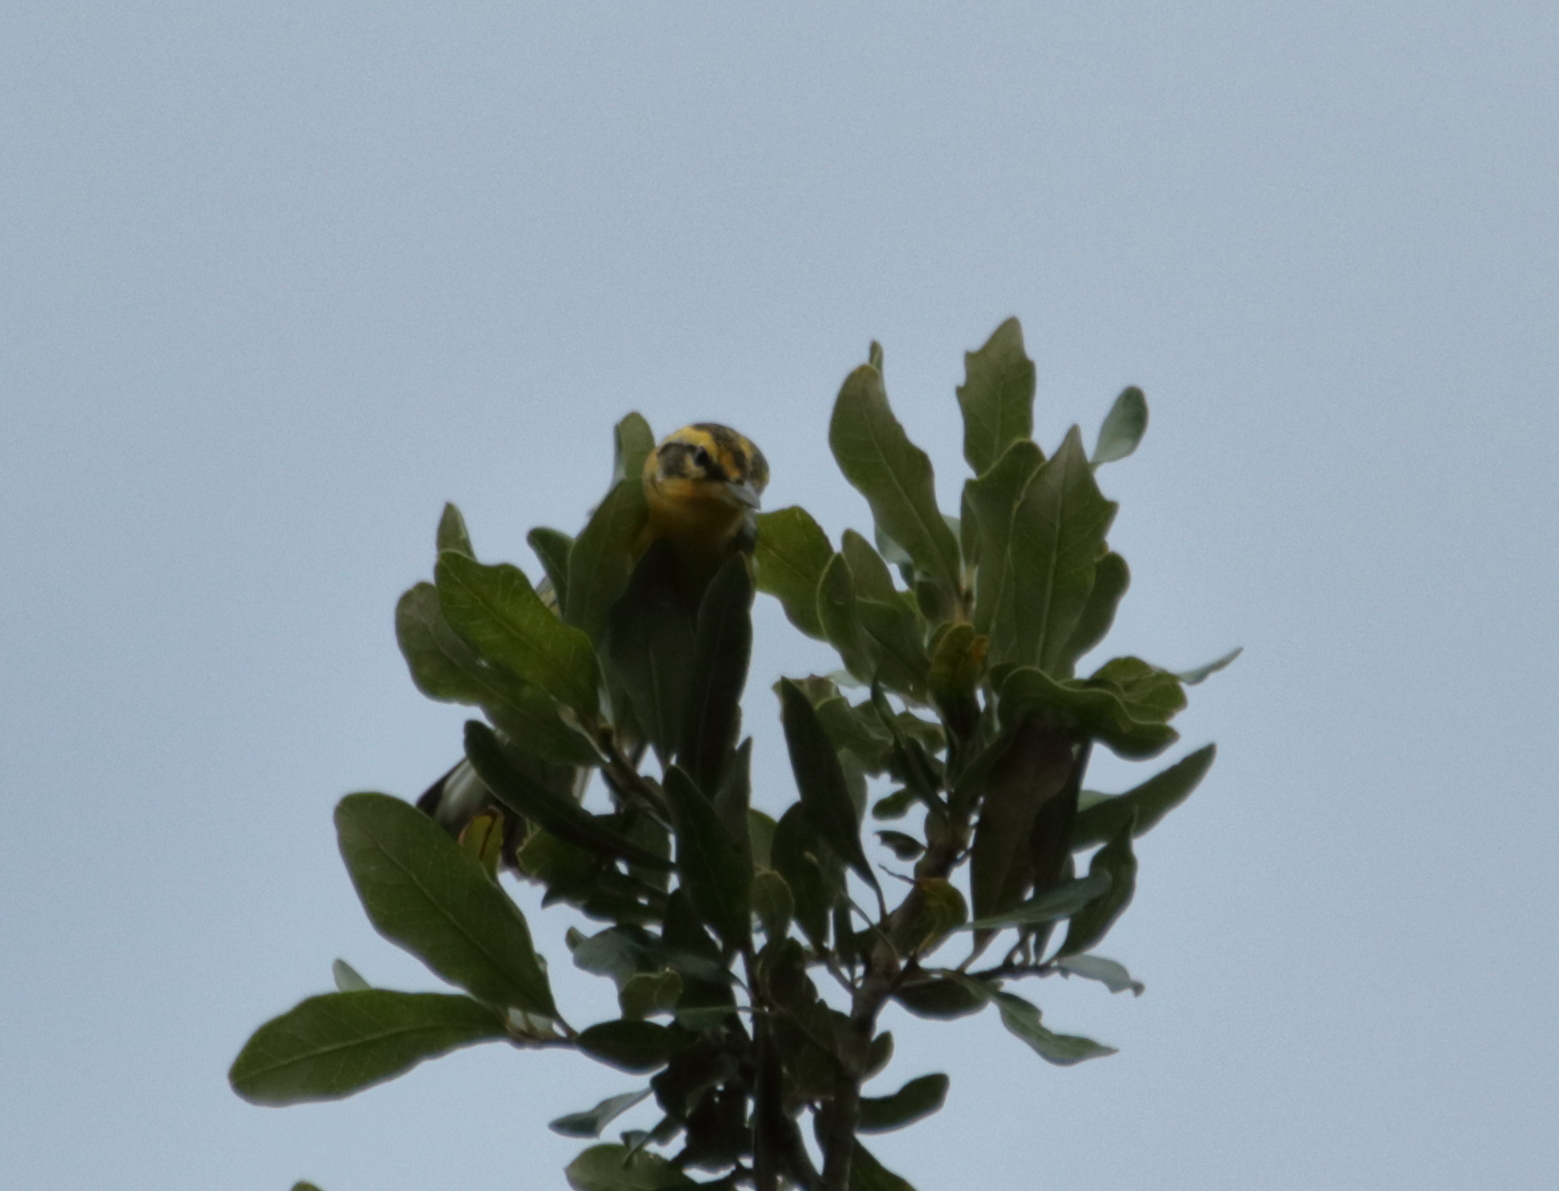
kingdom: Animalia
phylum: Chordata
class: Aves
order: Passeriformes
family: Parulidae
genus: Setophaga
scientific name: Setophaga fusca
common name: Blackburnian warbler
